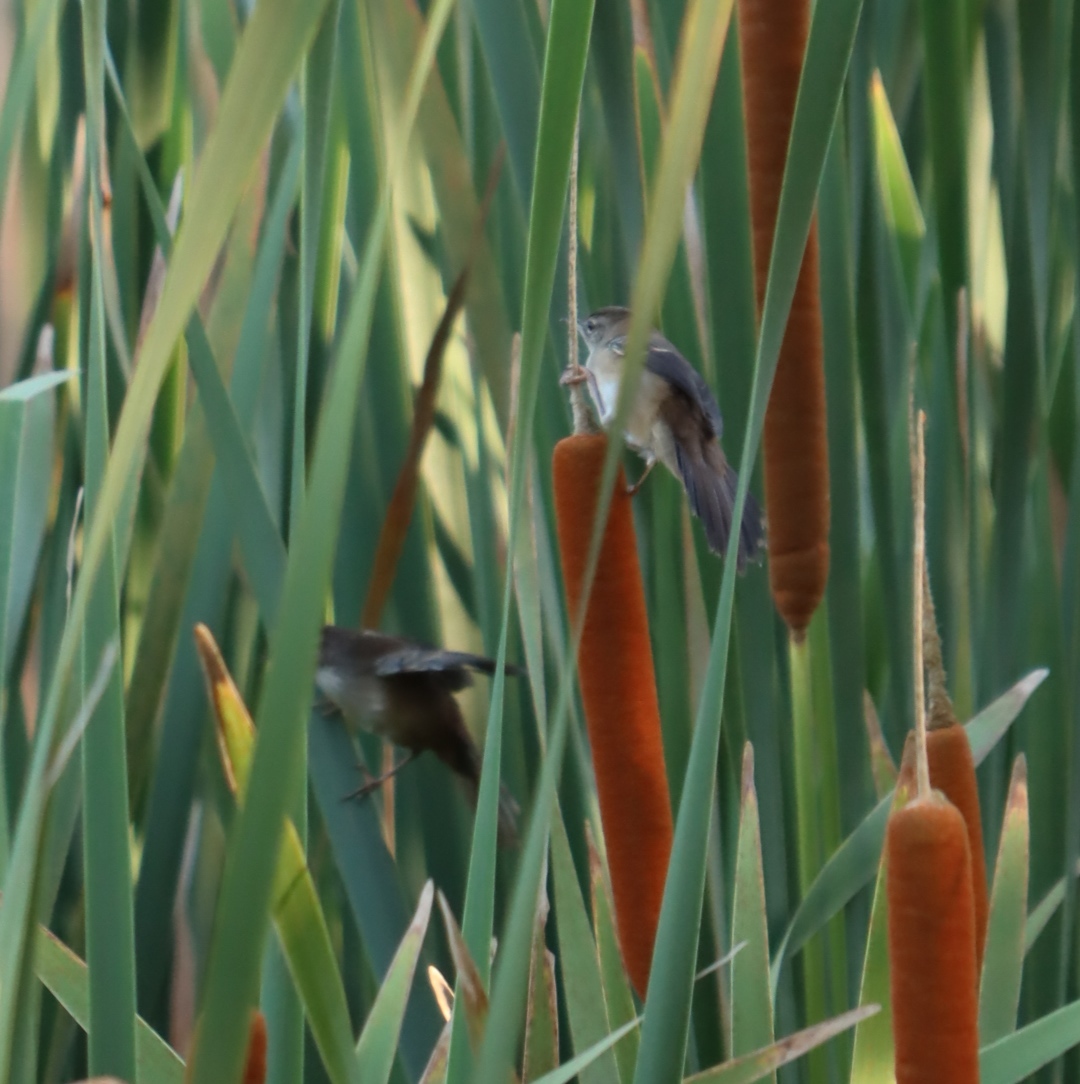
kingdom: Animalia
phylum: Chordata
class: Aves
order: Passeriformes
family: Locustellidae
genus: Bradypterus
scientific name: Bradypterus baboecala
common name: Little rush warbler
